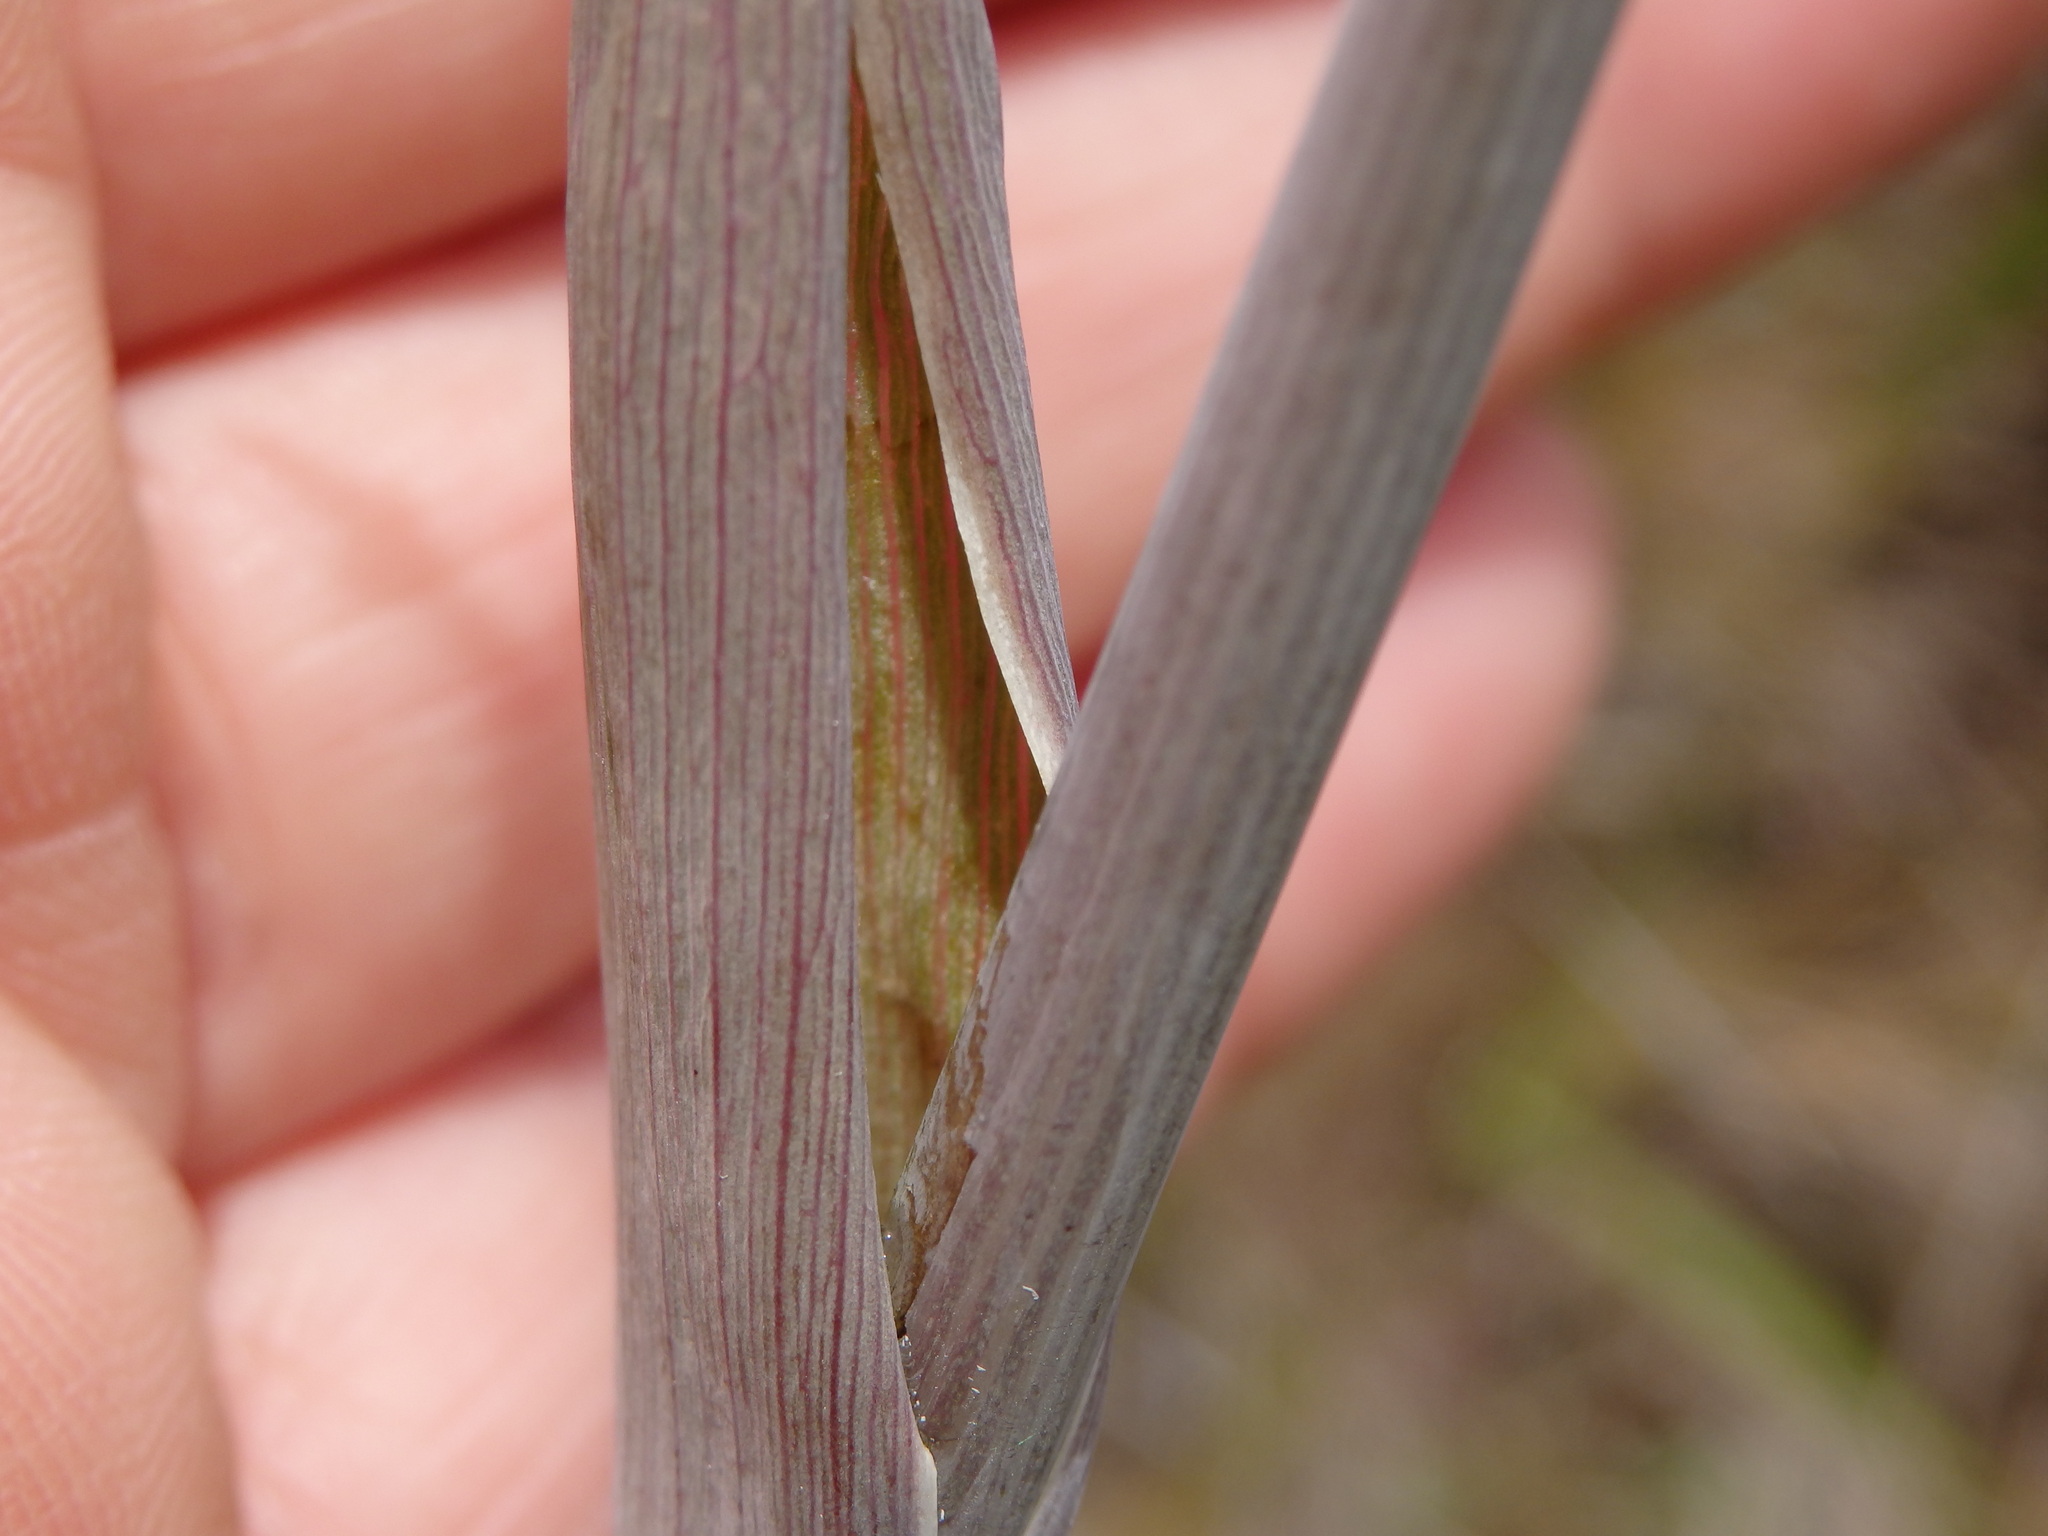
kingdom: Plantae
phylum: Tracheophyta
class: Magnoliopsida
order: Apiales
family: Apiaceae
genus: Thapsia
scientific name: Thapsia minor
